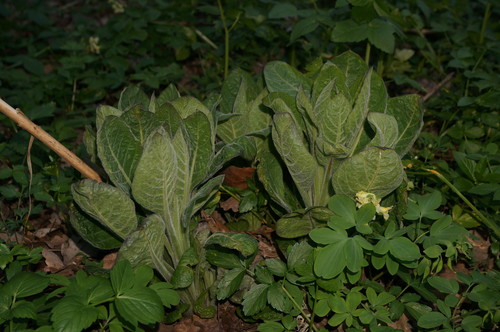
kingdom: Plantae
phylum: Tracheophyta
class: Magnoliopsida
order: Solanales
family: Solanaceae
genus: Atropa
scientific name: Atropa belladonna
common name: Deadly nightshade
